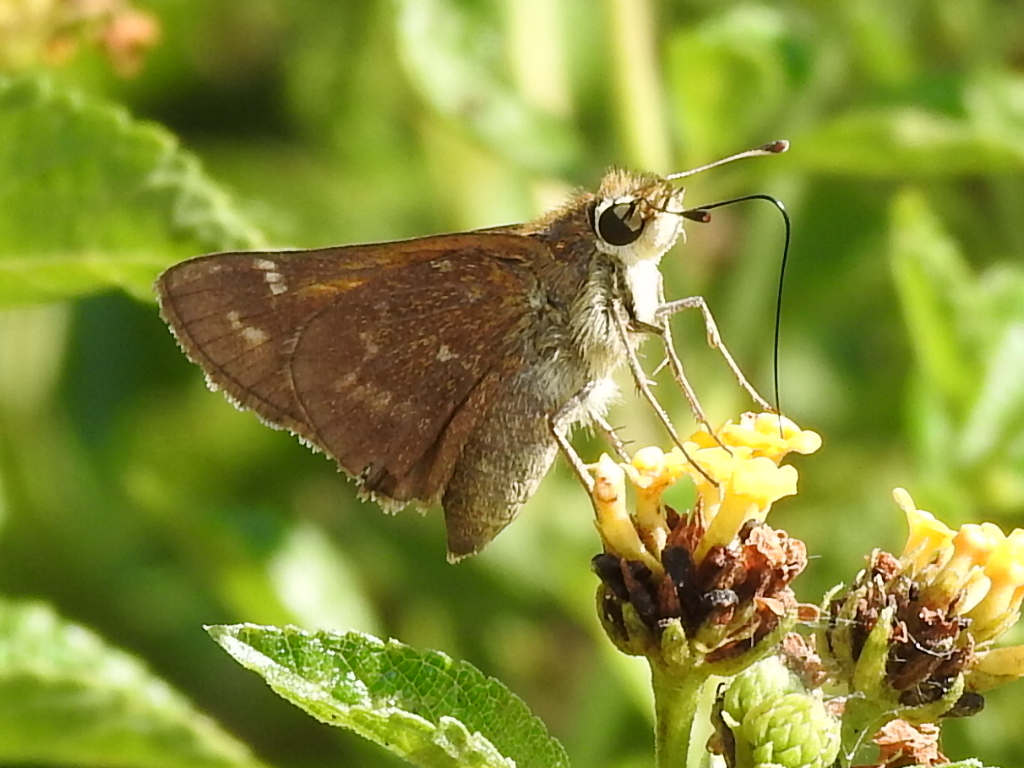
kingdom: Animalia
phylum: Arthropoda
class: Insecta
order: Lepidoptera
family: Hesperiidae
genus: Atalopedes
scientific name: Atalopedes
